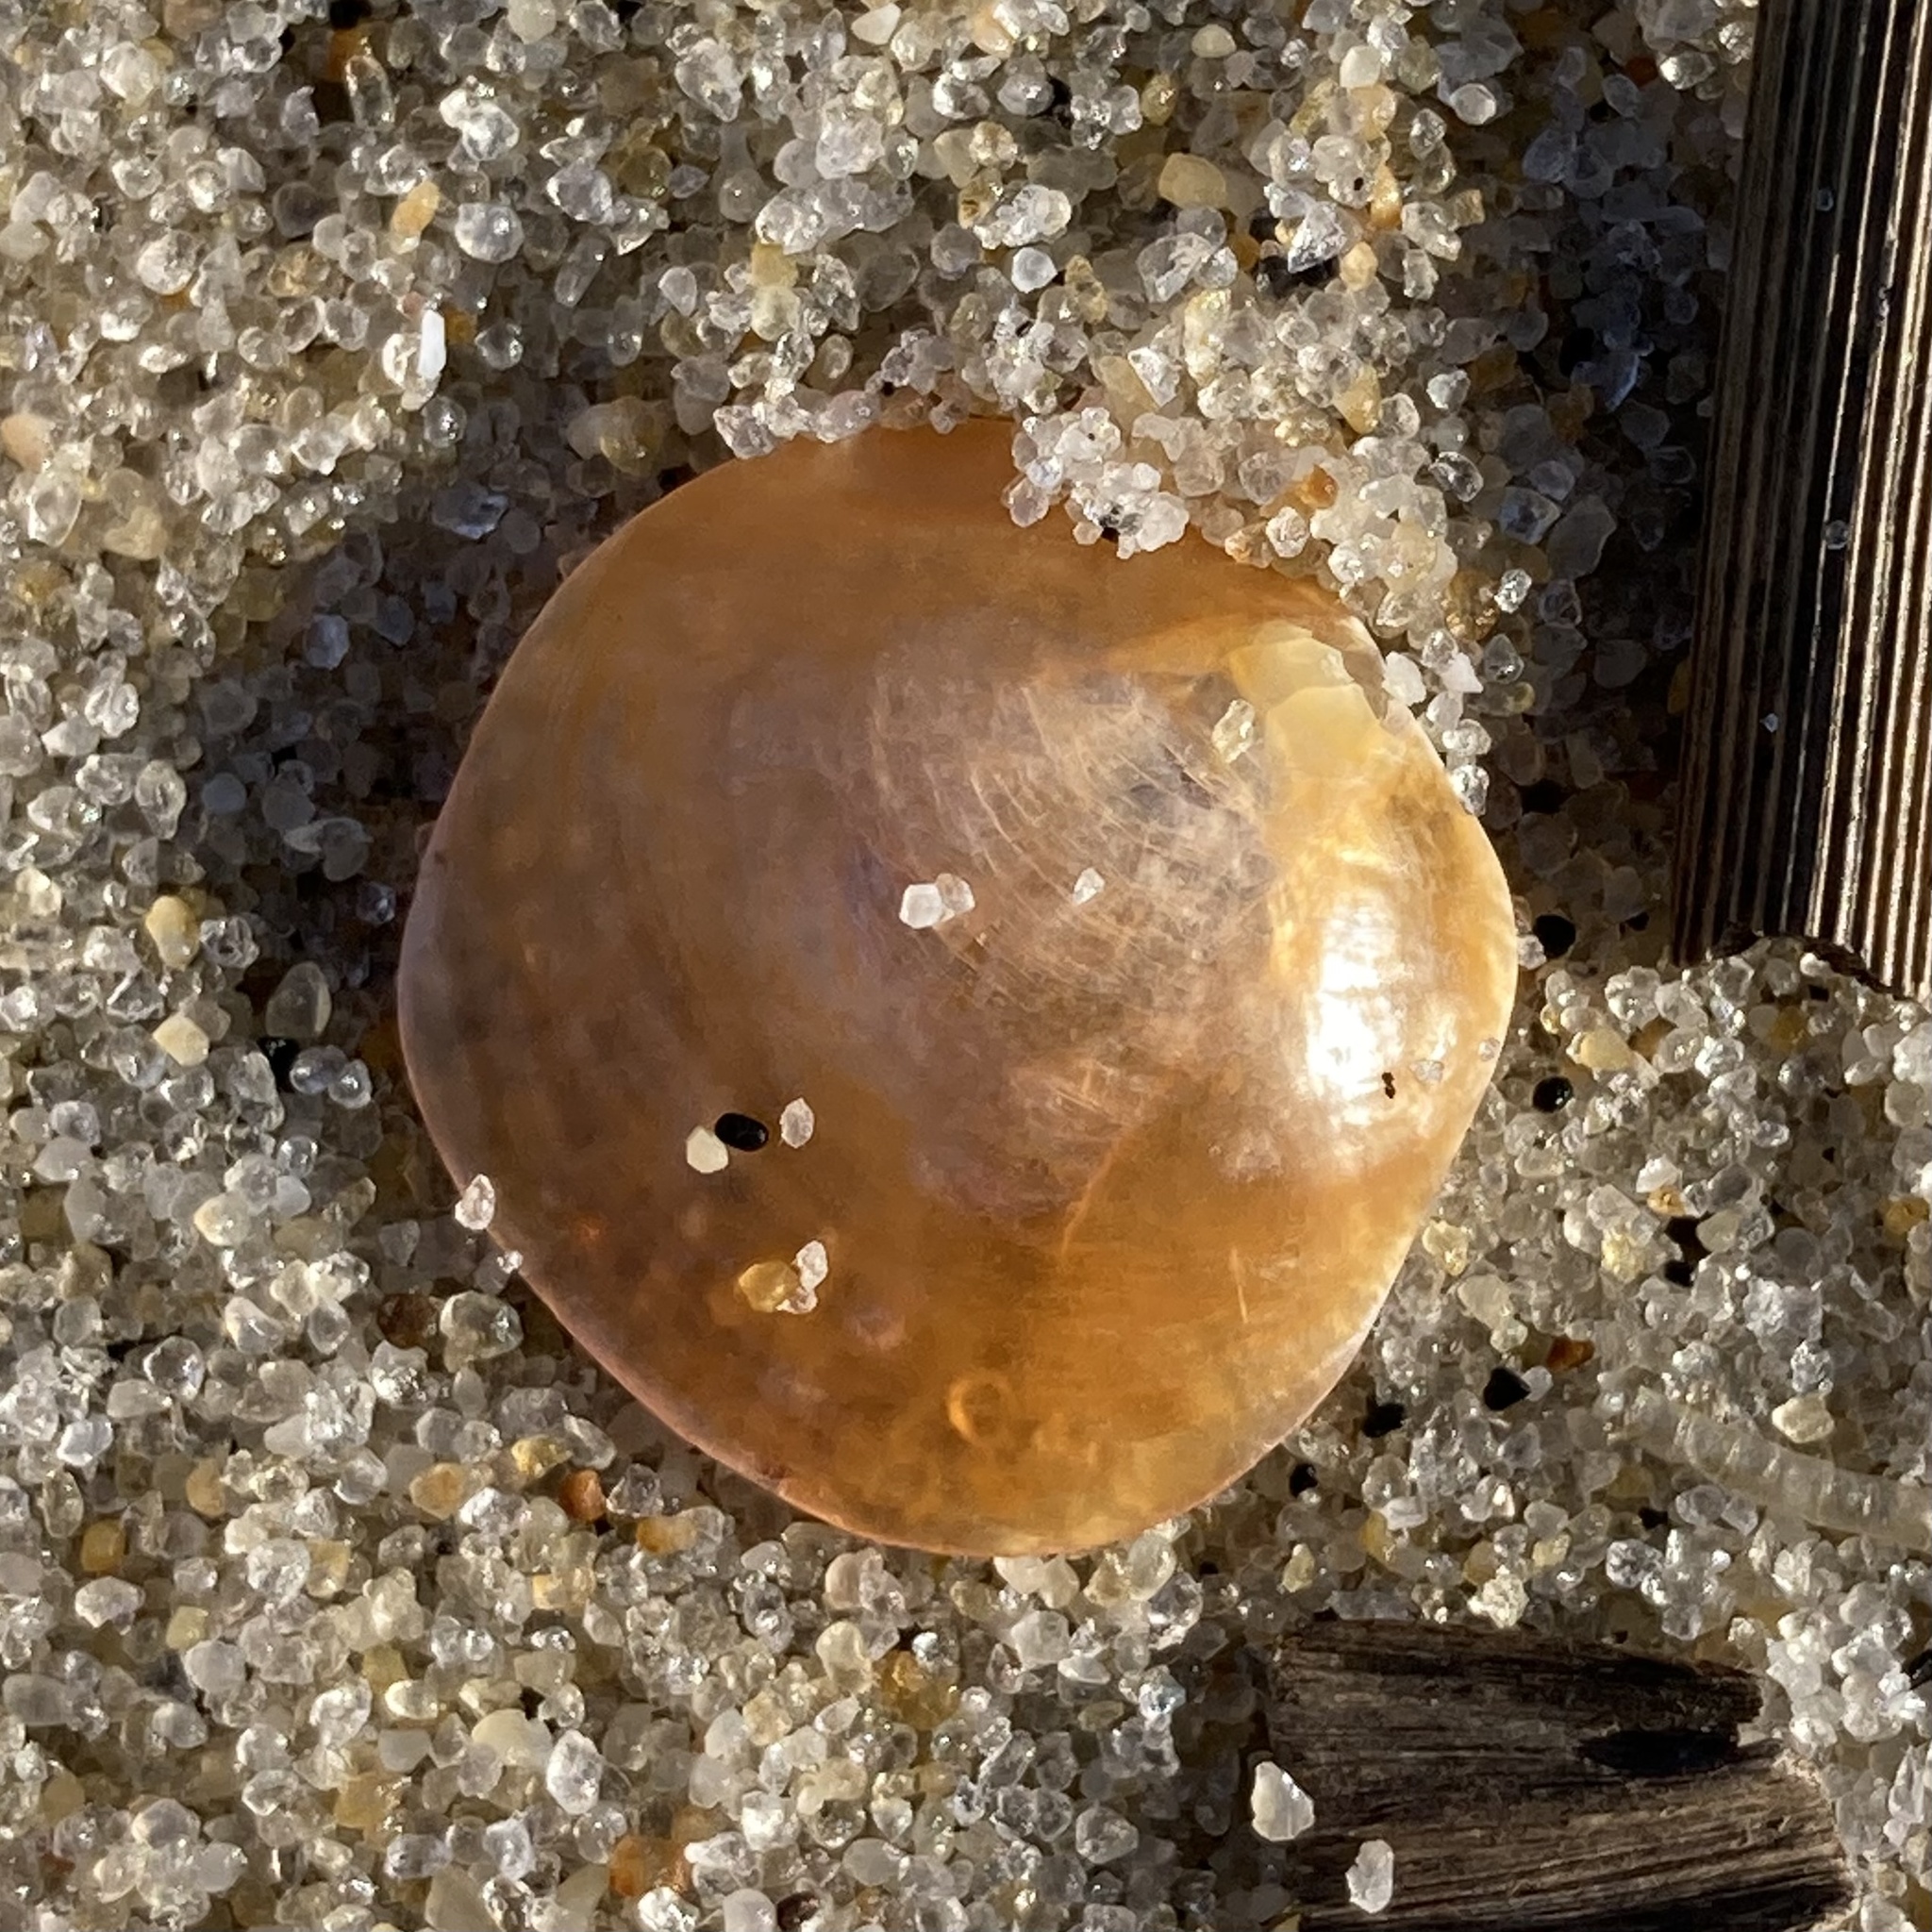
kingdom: Animalia
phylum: Mollusca
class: Bivalvia
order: Pectinida
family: Anomiidae
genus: Anomia
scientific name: Anomia simplex
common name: Common jingle shell
